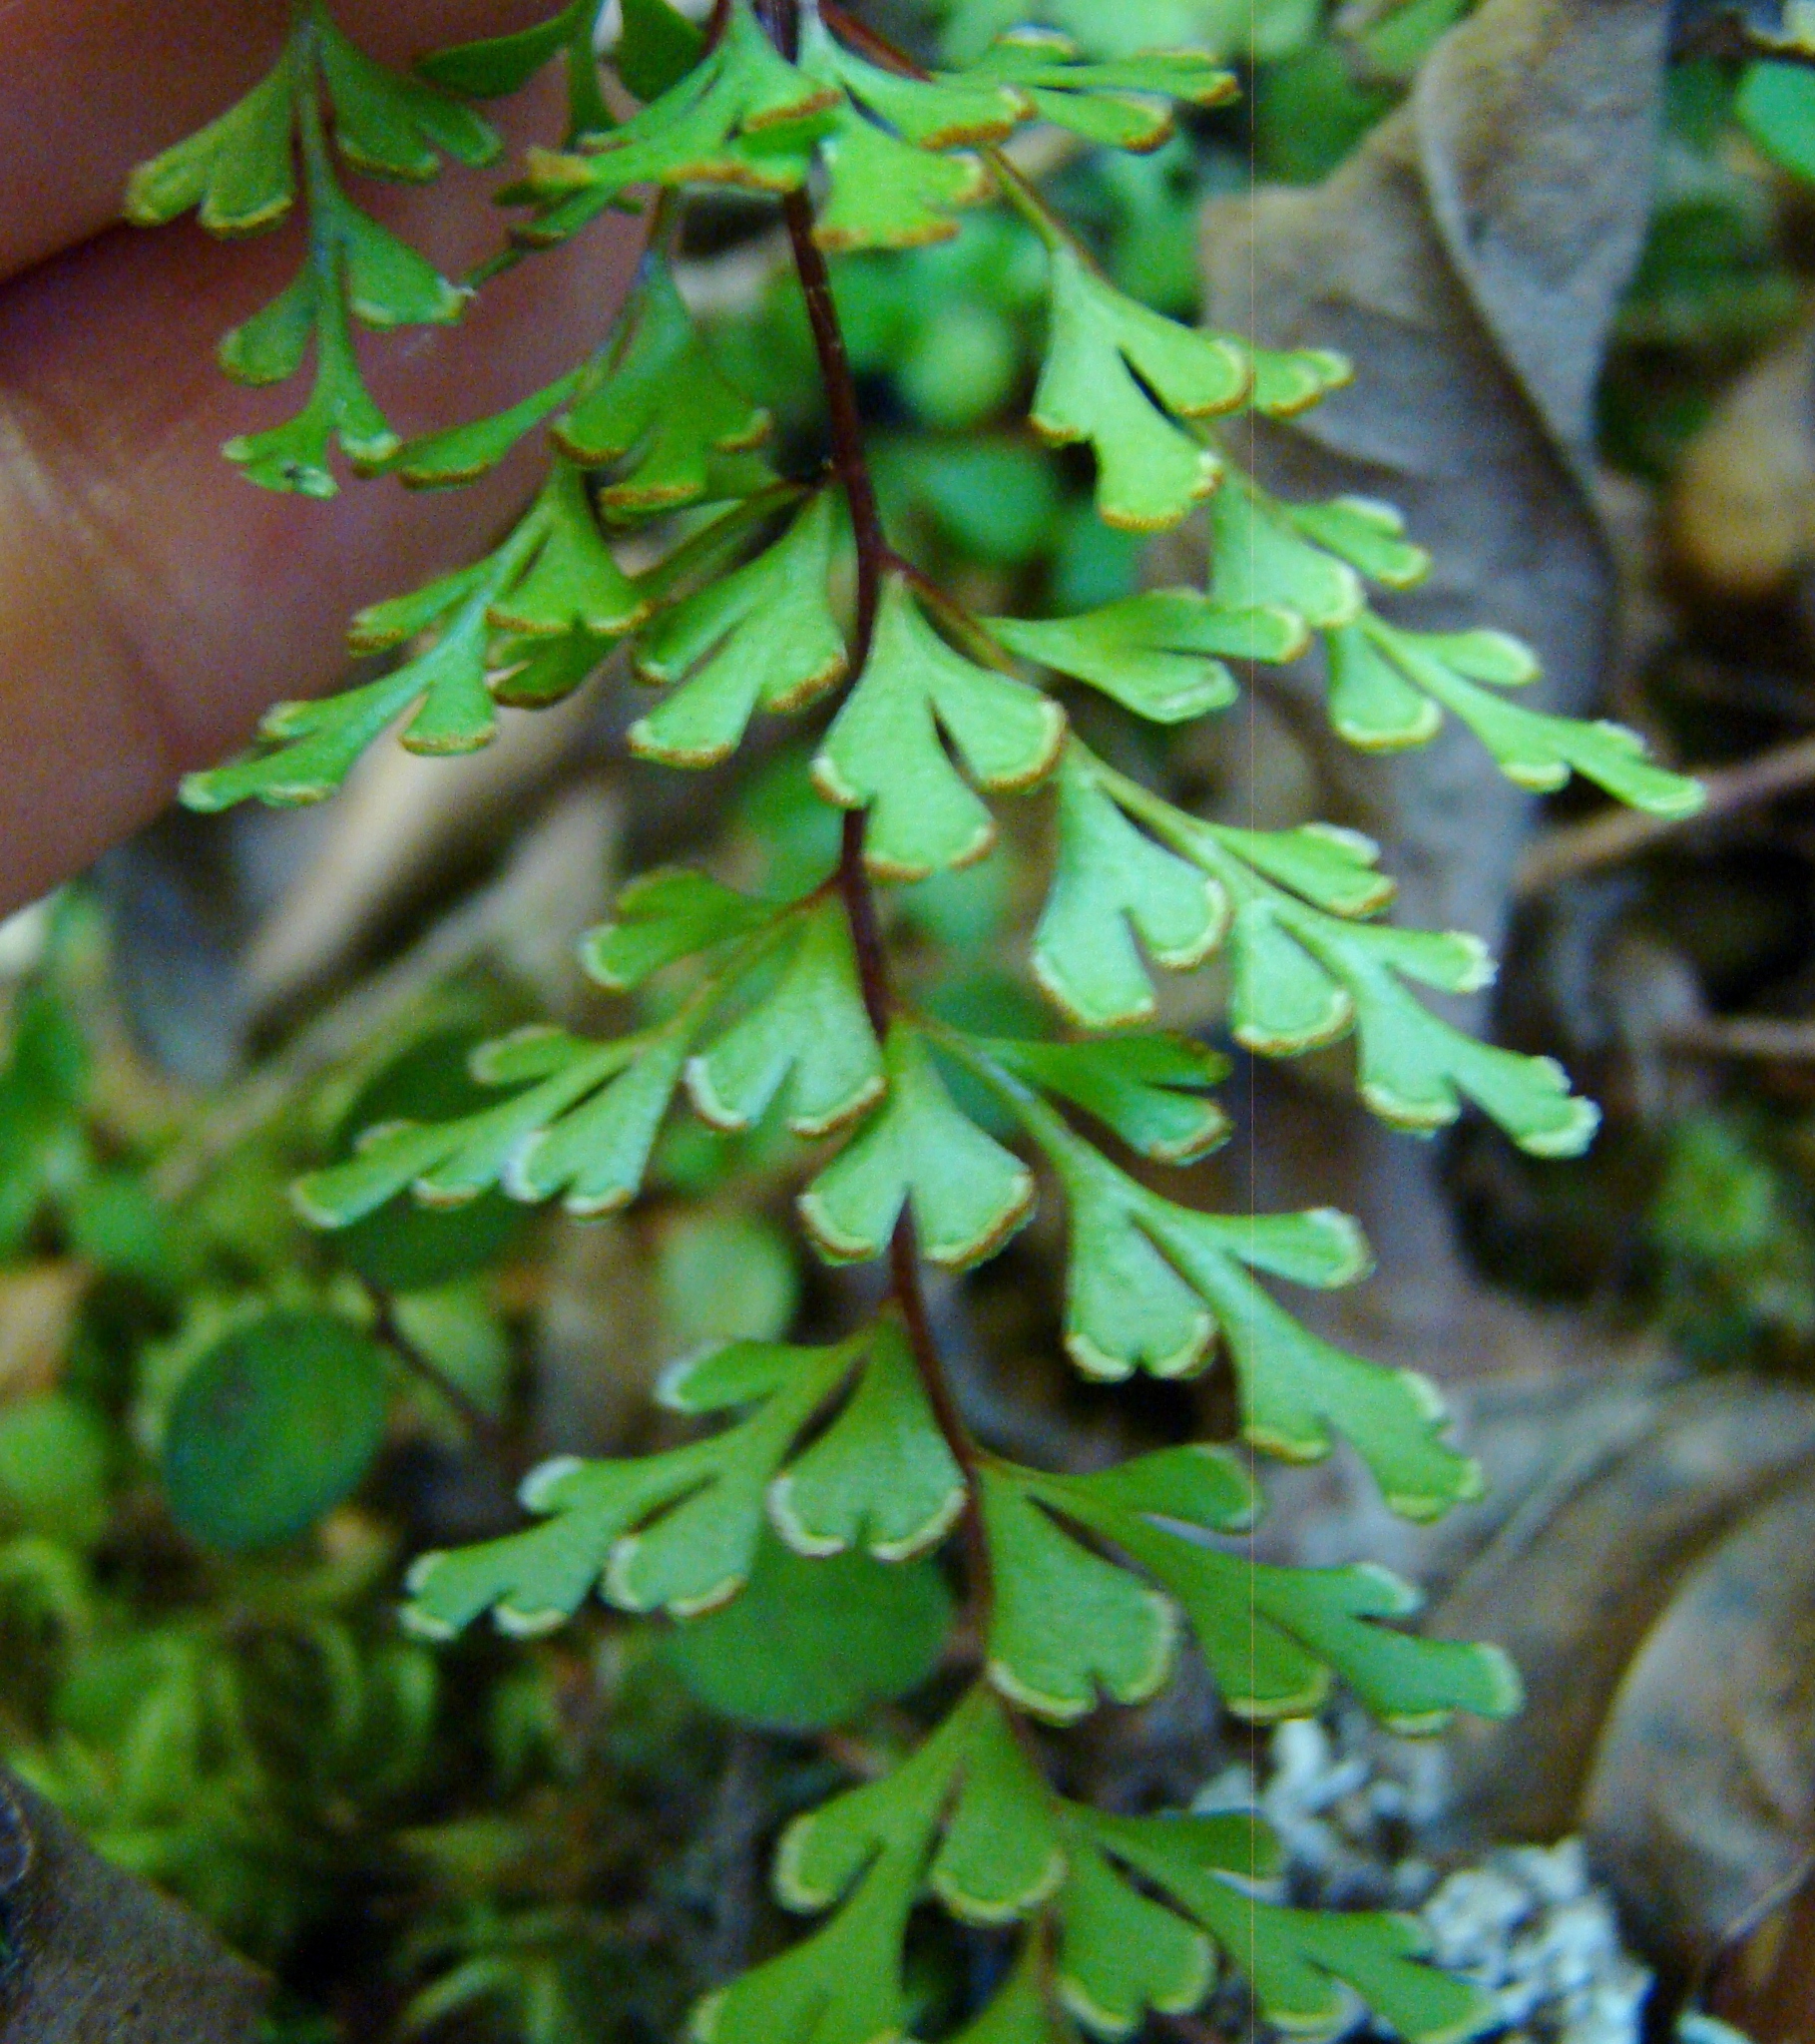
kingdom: Plantae
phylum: Tracheophyta
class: Polypodiopsida
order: Polypodiales
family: Lindsaeaceae
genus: Lindsaea
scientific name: Lindsaea trichomanoides
